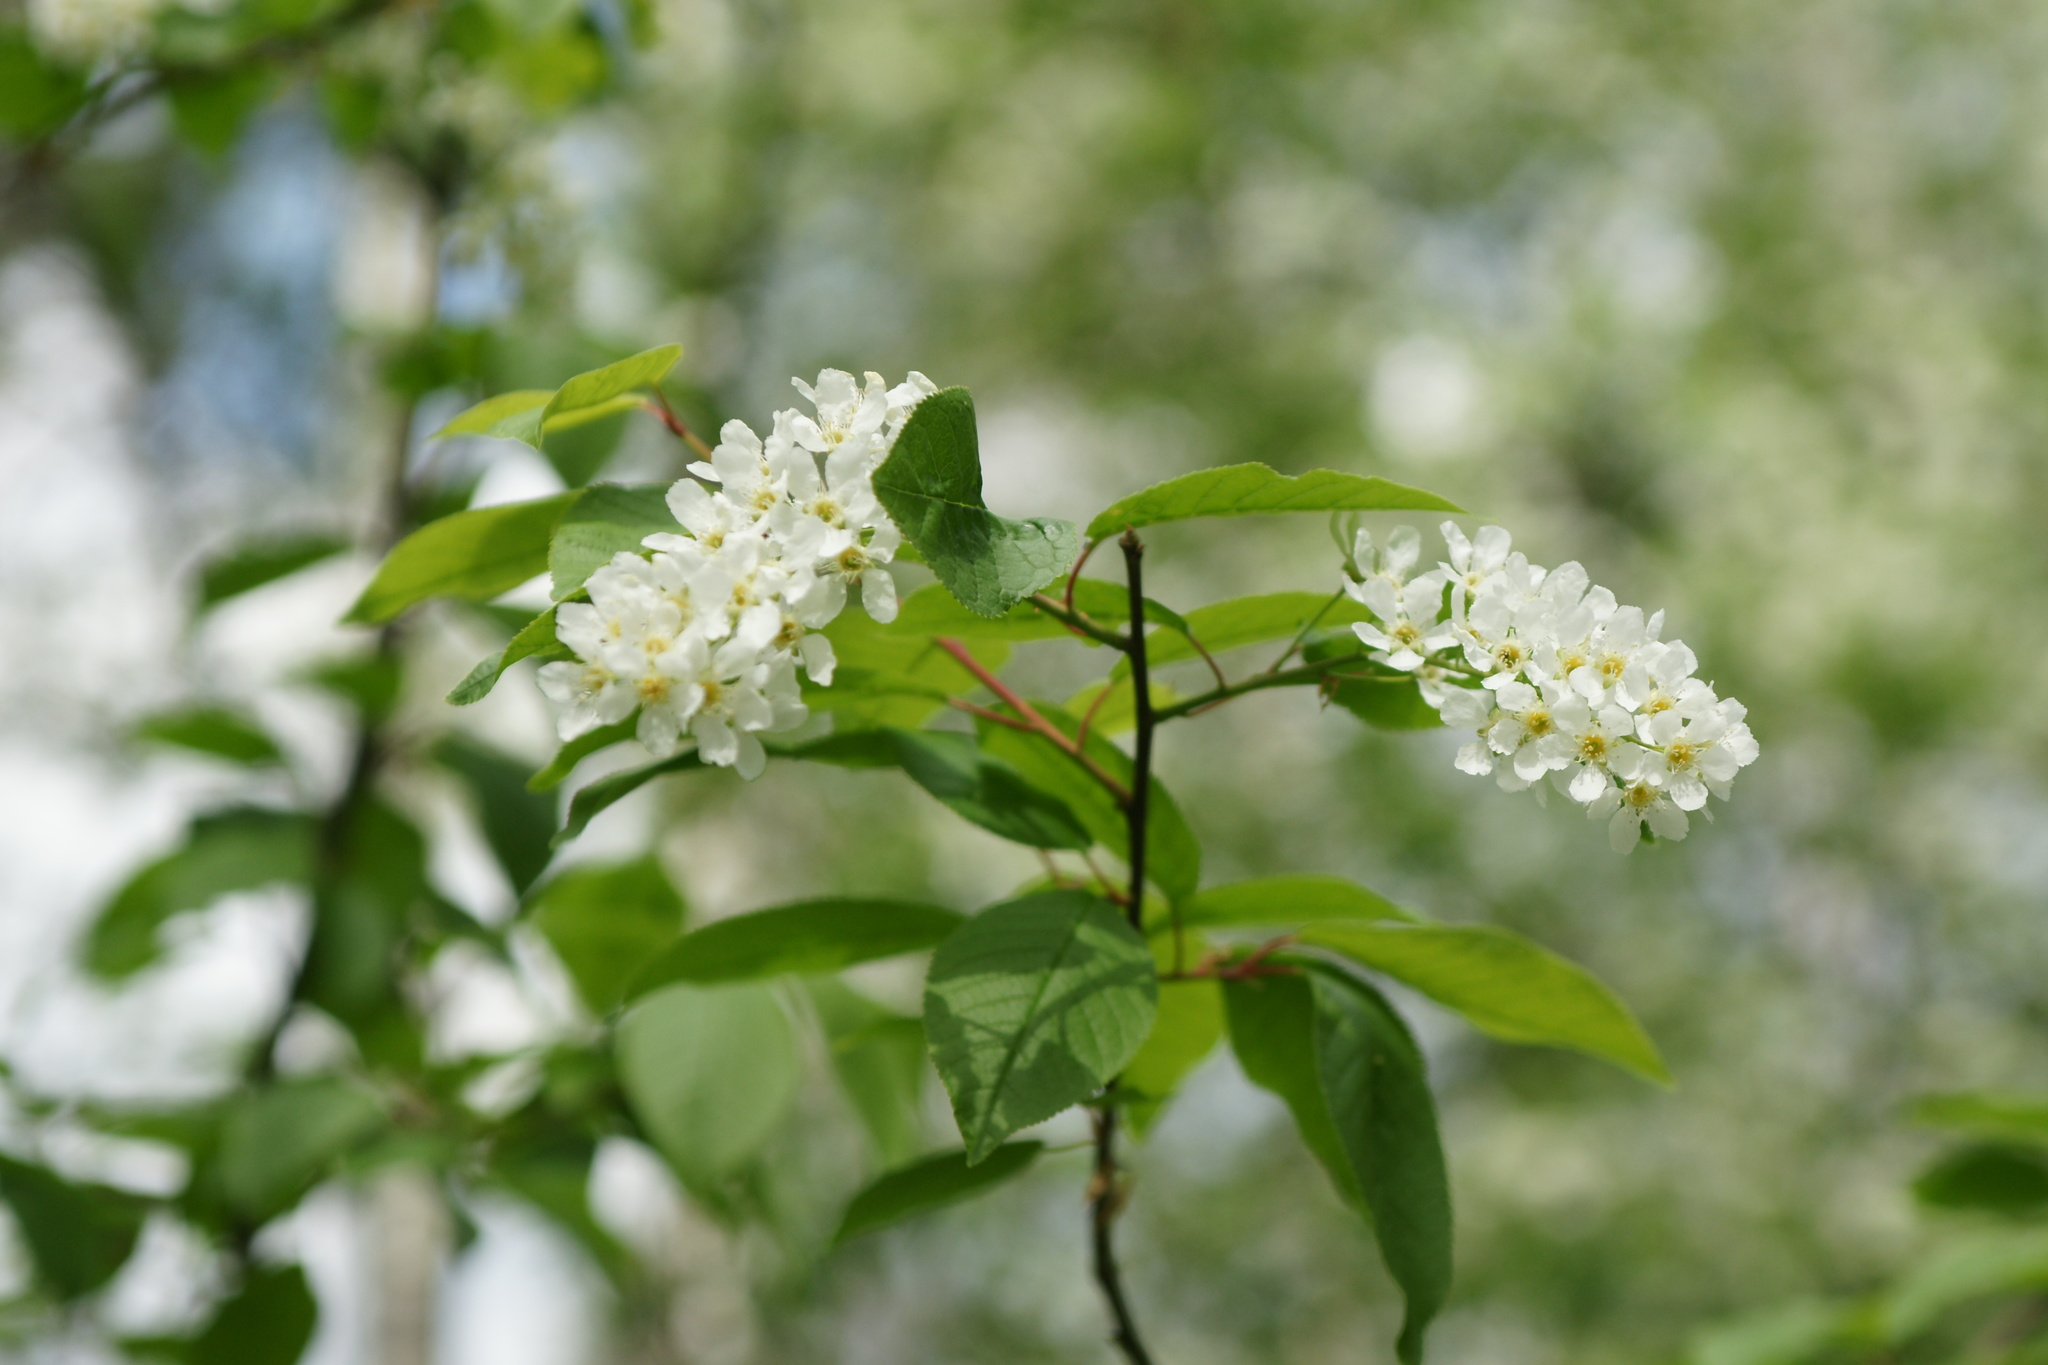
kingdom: Plantae
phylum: Tracheophyta
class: Magnoliopsida
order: Rosales
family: Rosaceae
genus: Prunus
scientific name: Prunus padus
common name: Bird cherry
